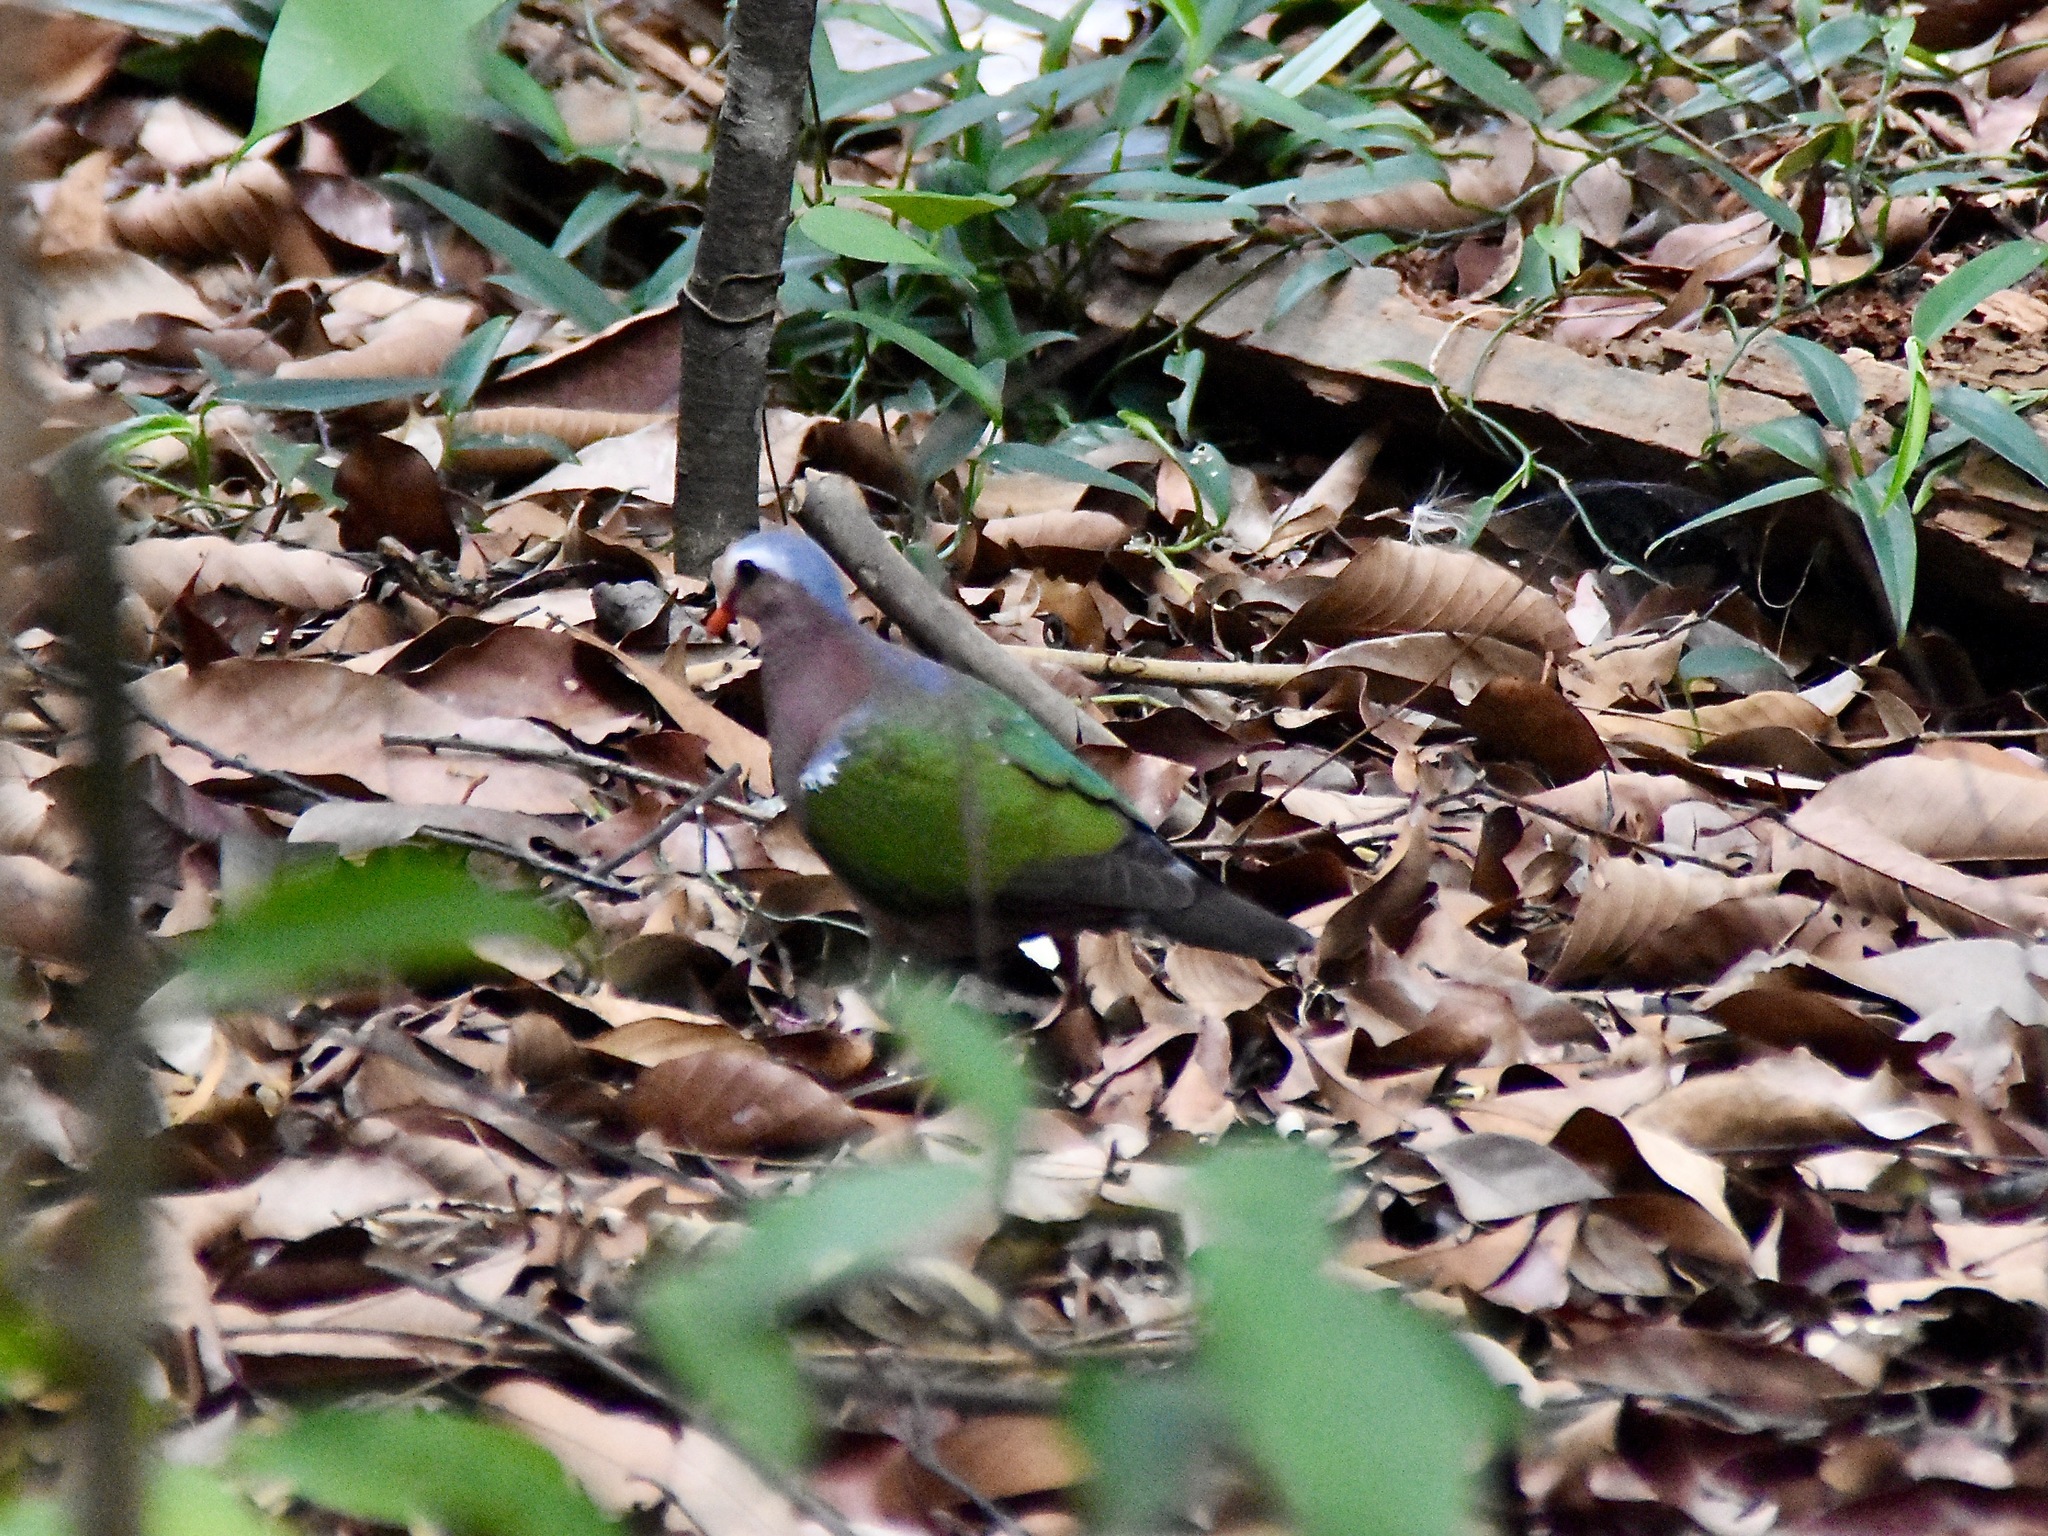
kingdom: Animalia
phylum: Chordata
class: Aves
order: Columbiformes
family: Columbidae
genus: Chalcophaps
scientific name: Chalcophaps indica
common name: Common emerald dove
